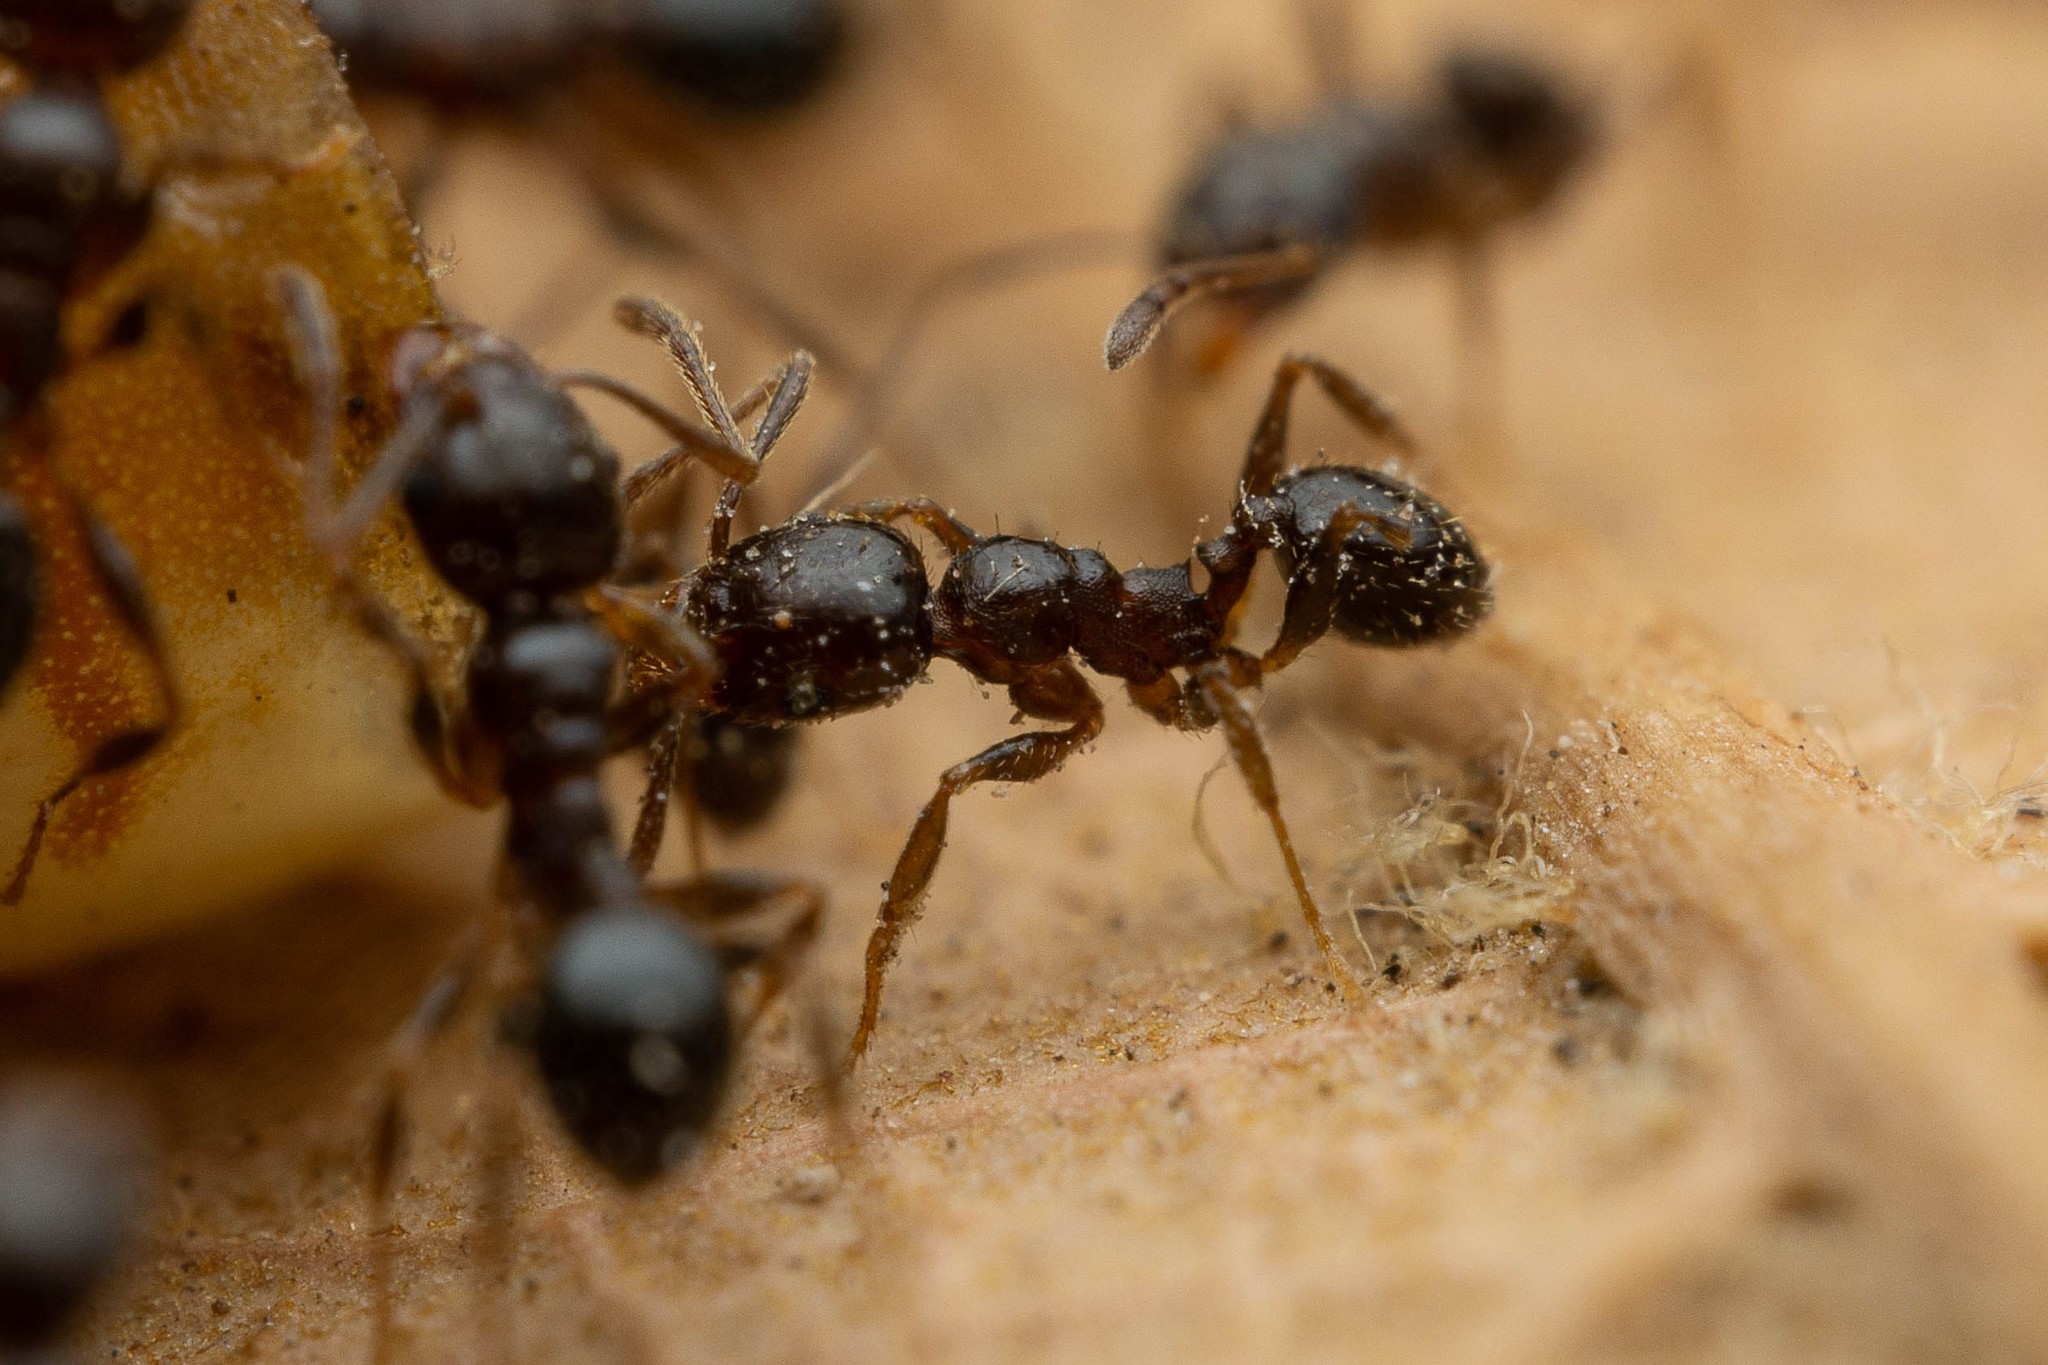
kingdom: Animalia
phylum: Arthropoda
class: Insecta
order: Hymenoptera
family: Formicidae
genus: Pheidole
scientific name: Pheidole diversipilosa
